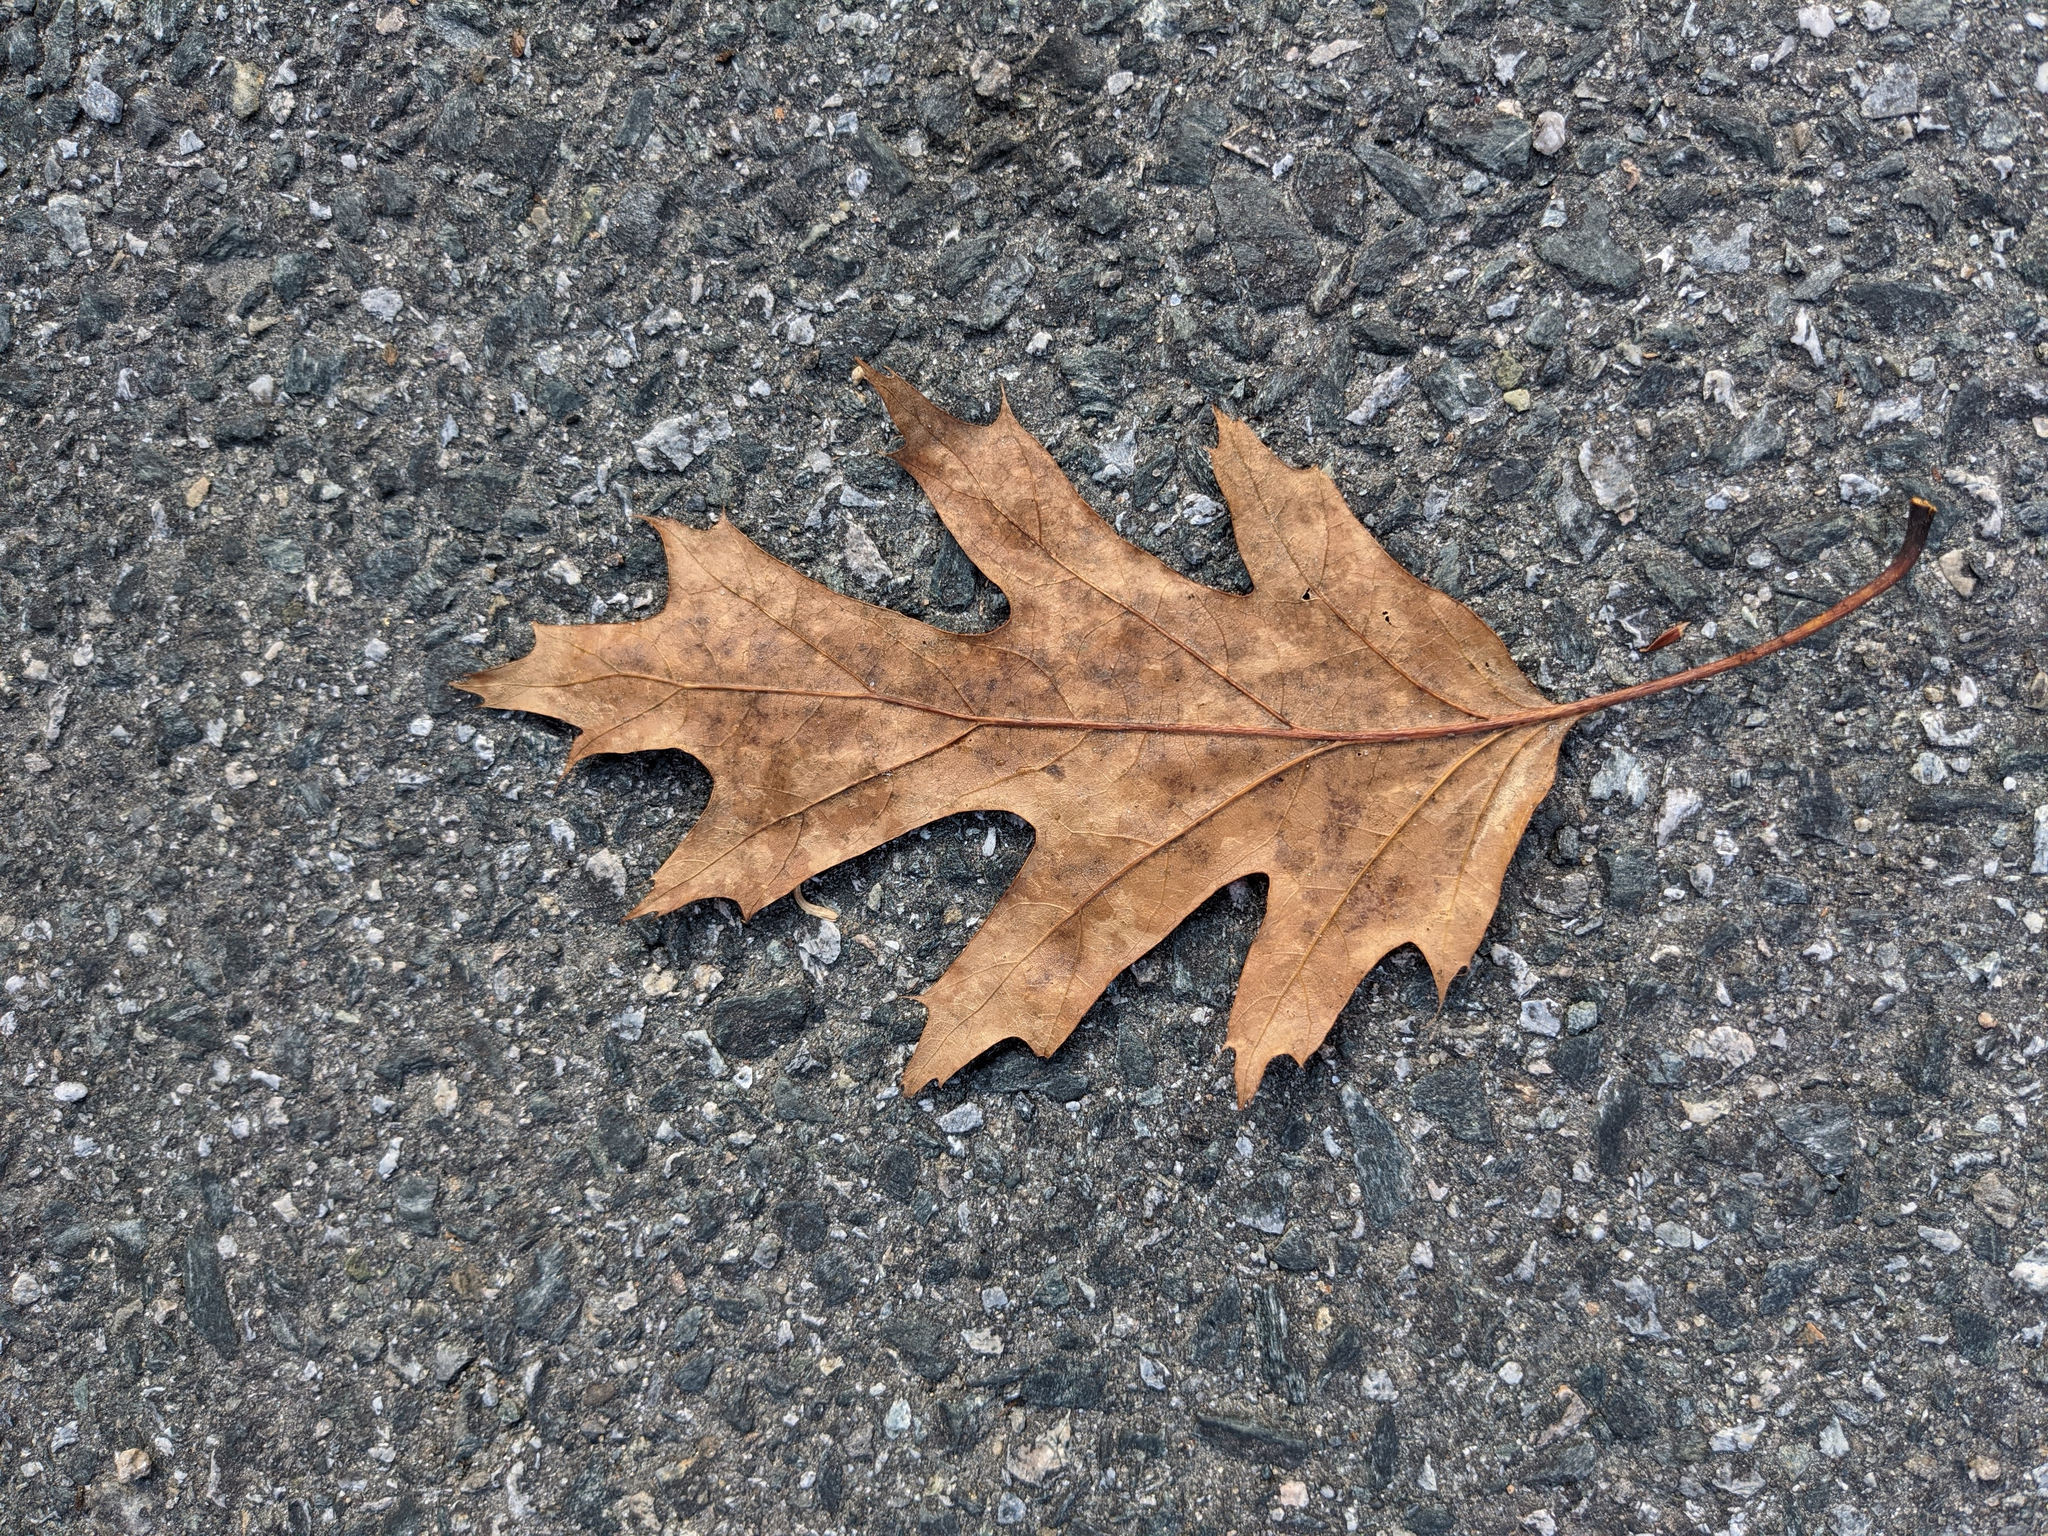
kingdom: Plantae
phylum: Tracheophyta
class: Magnoliopsida
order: Fagales
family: Fagaceae
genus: Quercus
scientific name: Quercus rubra
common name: Red oak
